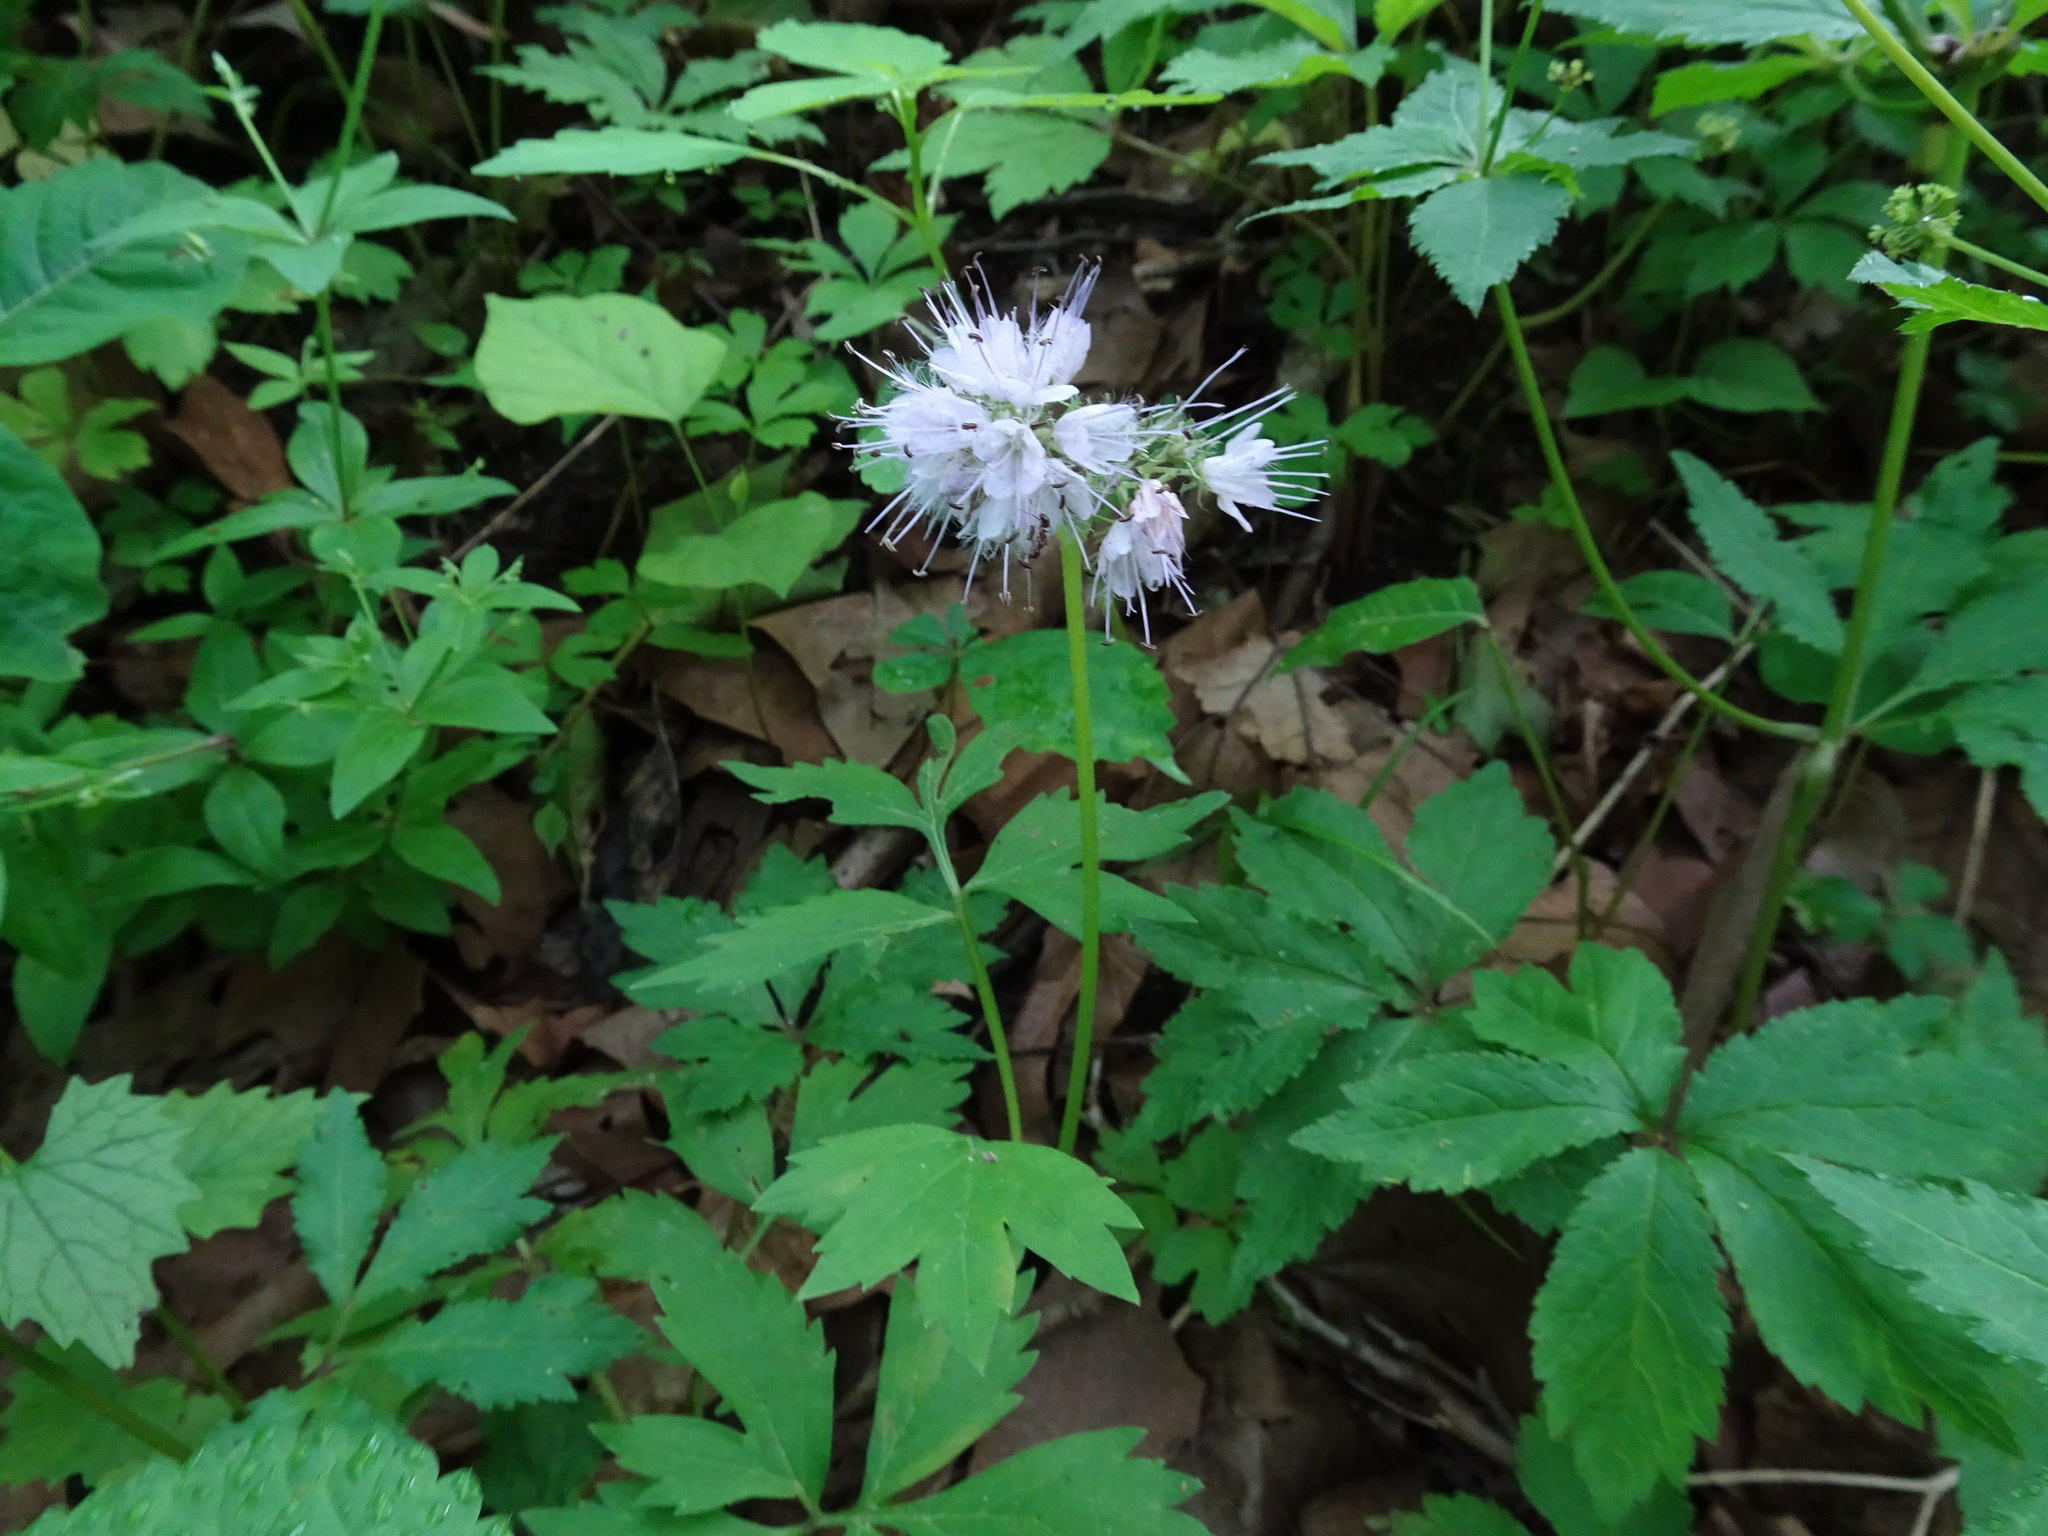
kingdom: Plantae
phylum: Tracheophyta
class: Magnoliopsida
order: Boraginales
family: Hydrophyllaceae
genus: Hydrophyllum
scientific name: Hydrophyllum virginianum
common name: Virginia waterleaf
